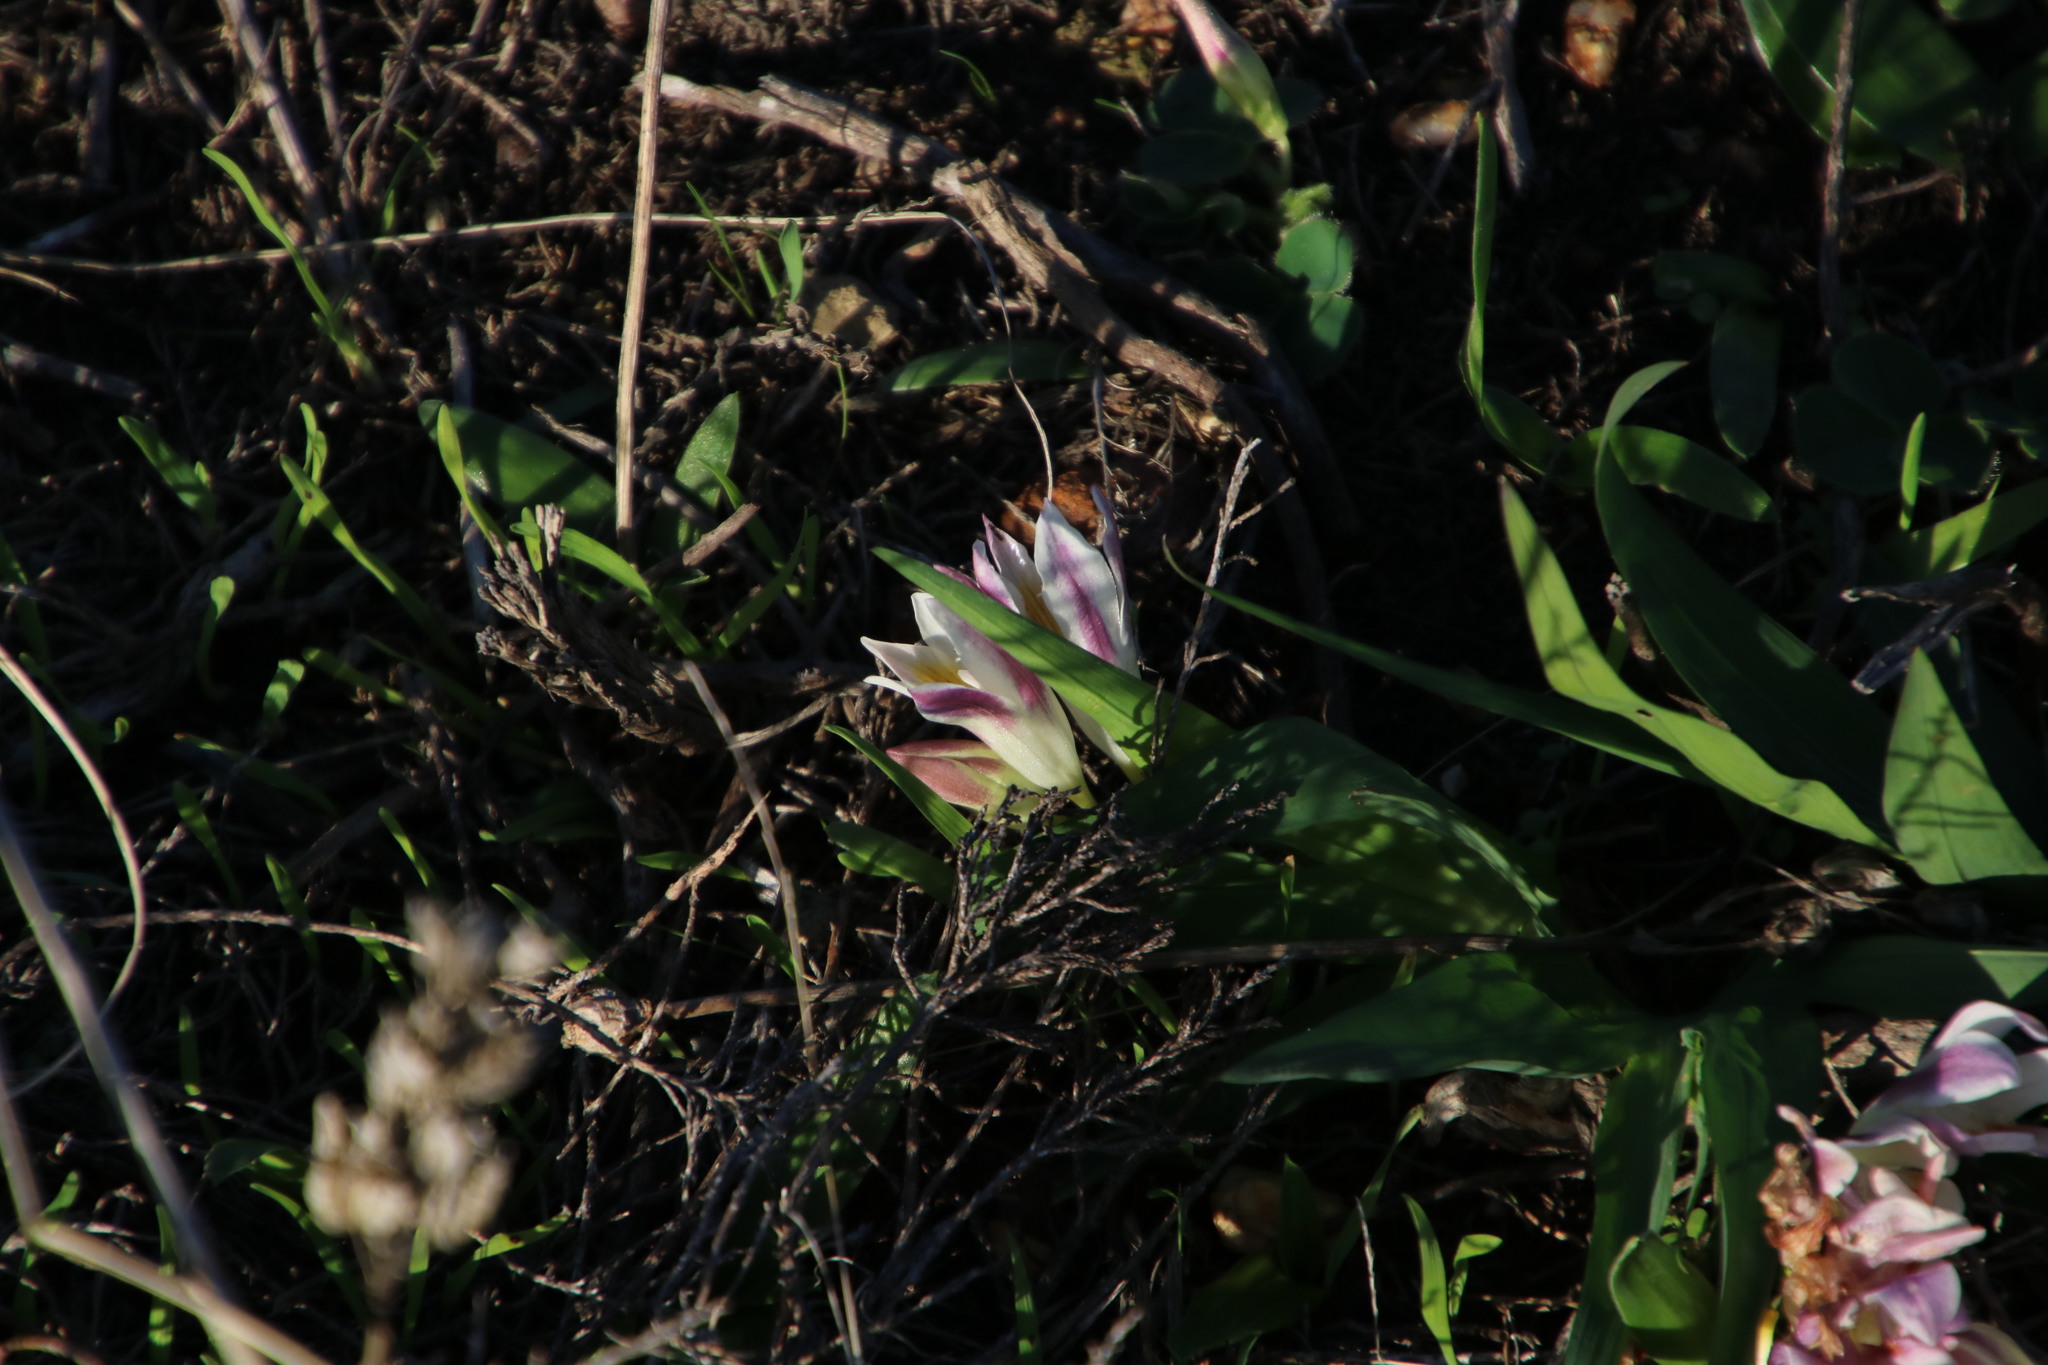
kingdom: Plantae
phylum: Tracheophyta
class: Liliopsida
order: Asparagales
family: Iridaceae
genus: Freesia
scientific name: Freesia caryophyllacea
